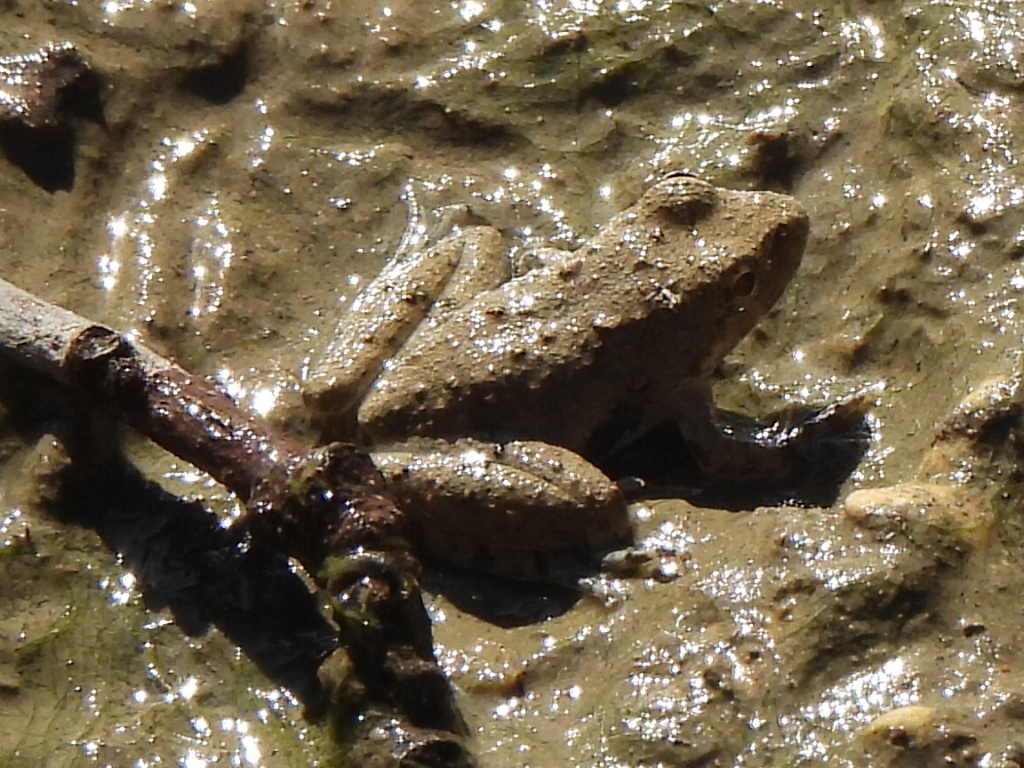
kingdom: Animalia
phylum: Chordata
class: Amphibia
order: Anura
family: Hylidae
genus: Acris
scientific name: Acris blanchardi
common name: Blanchard's cricket frog
